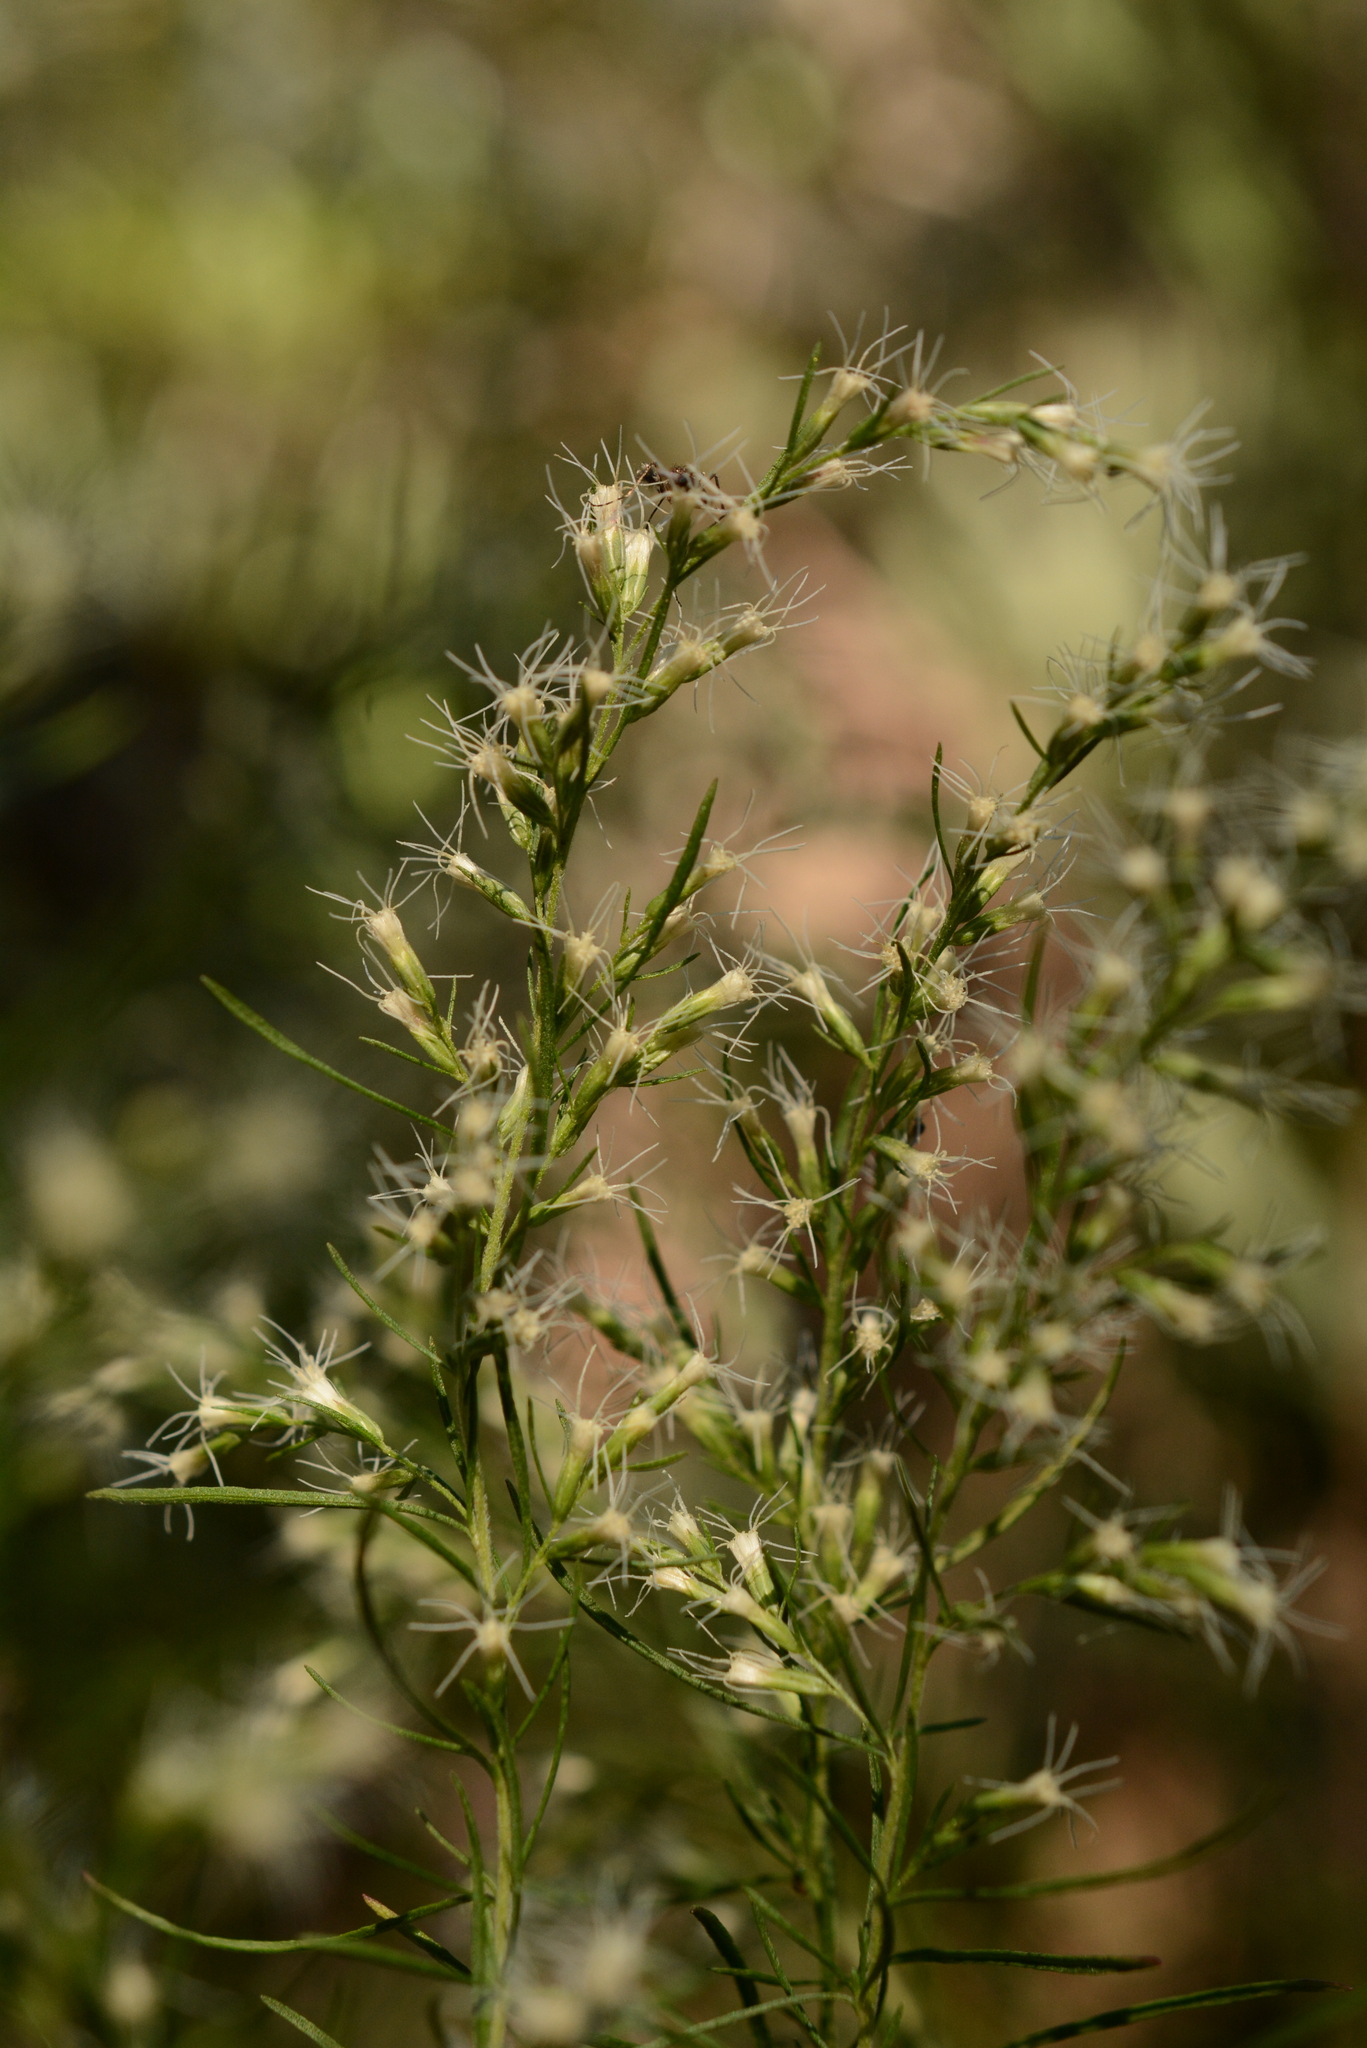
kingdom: Plantae
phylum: Tracheophyta
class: Magnoliopsida
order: Asterales
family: Asteraceae
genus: Eupatorium
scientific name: Eupatorium capillifolium
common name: Dog-fennel
